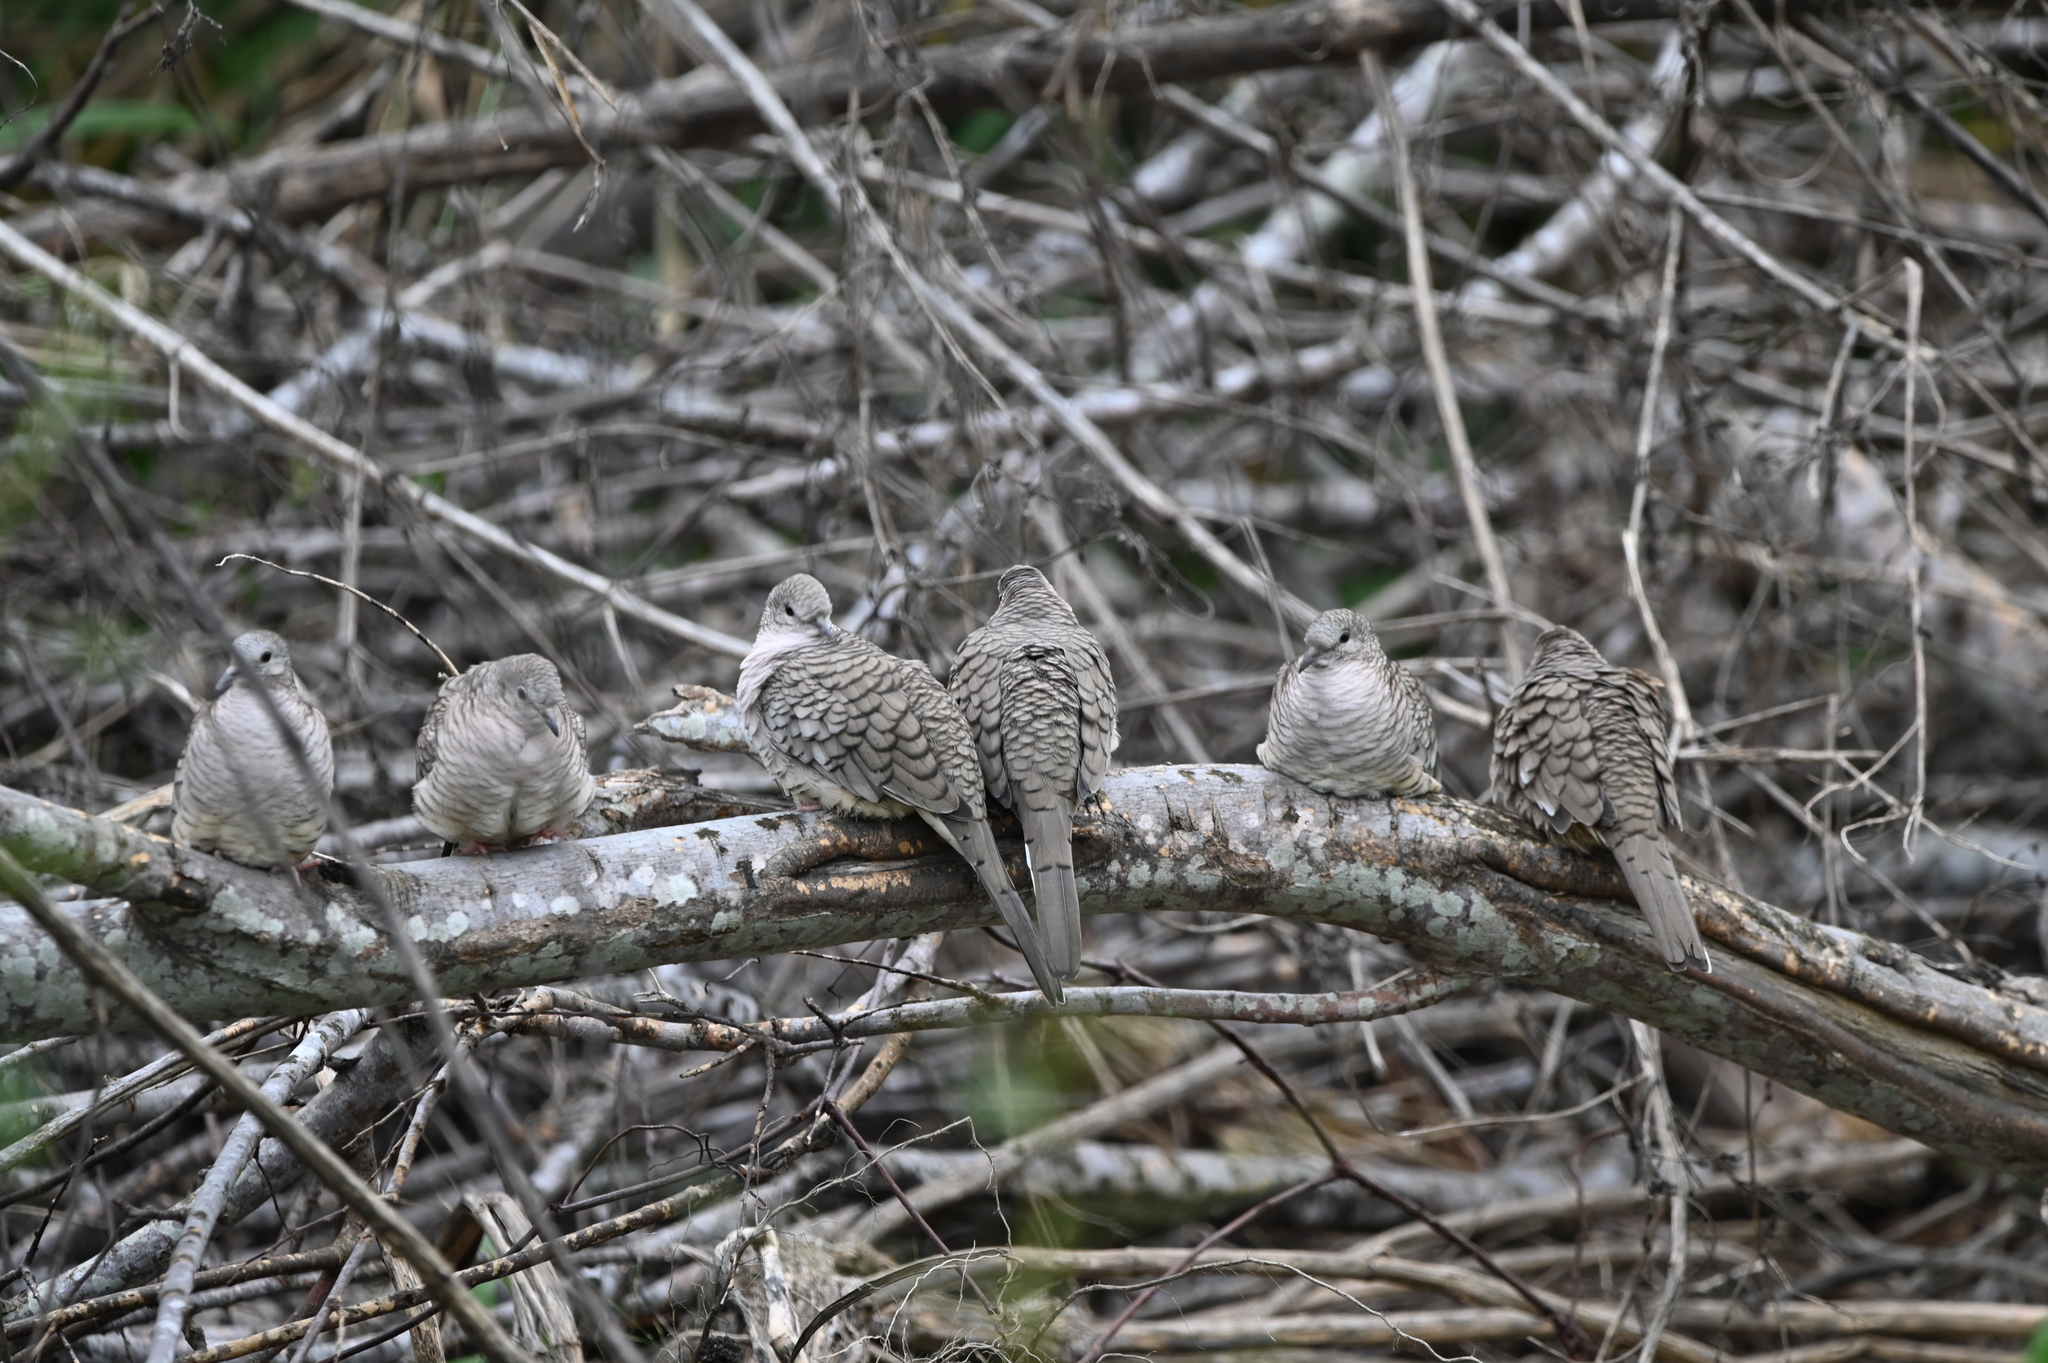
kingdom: Animalia
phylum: Chordata
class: Aves
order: Columbiformes
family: Columbidae
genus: Columbina
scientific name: Columbina inca
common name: Inca dove
